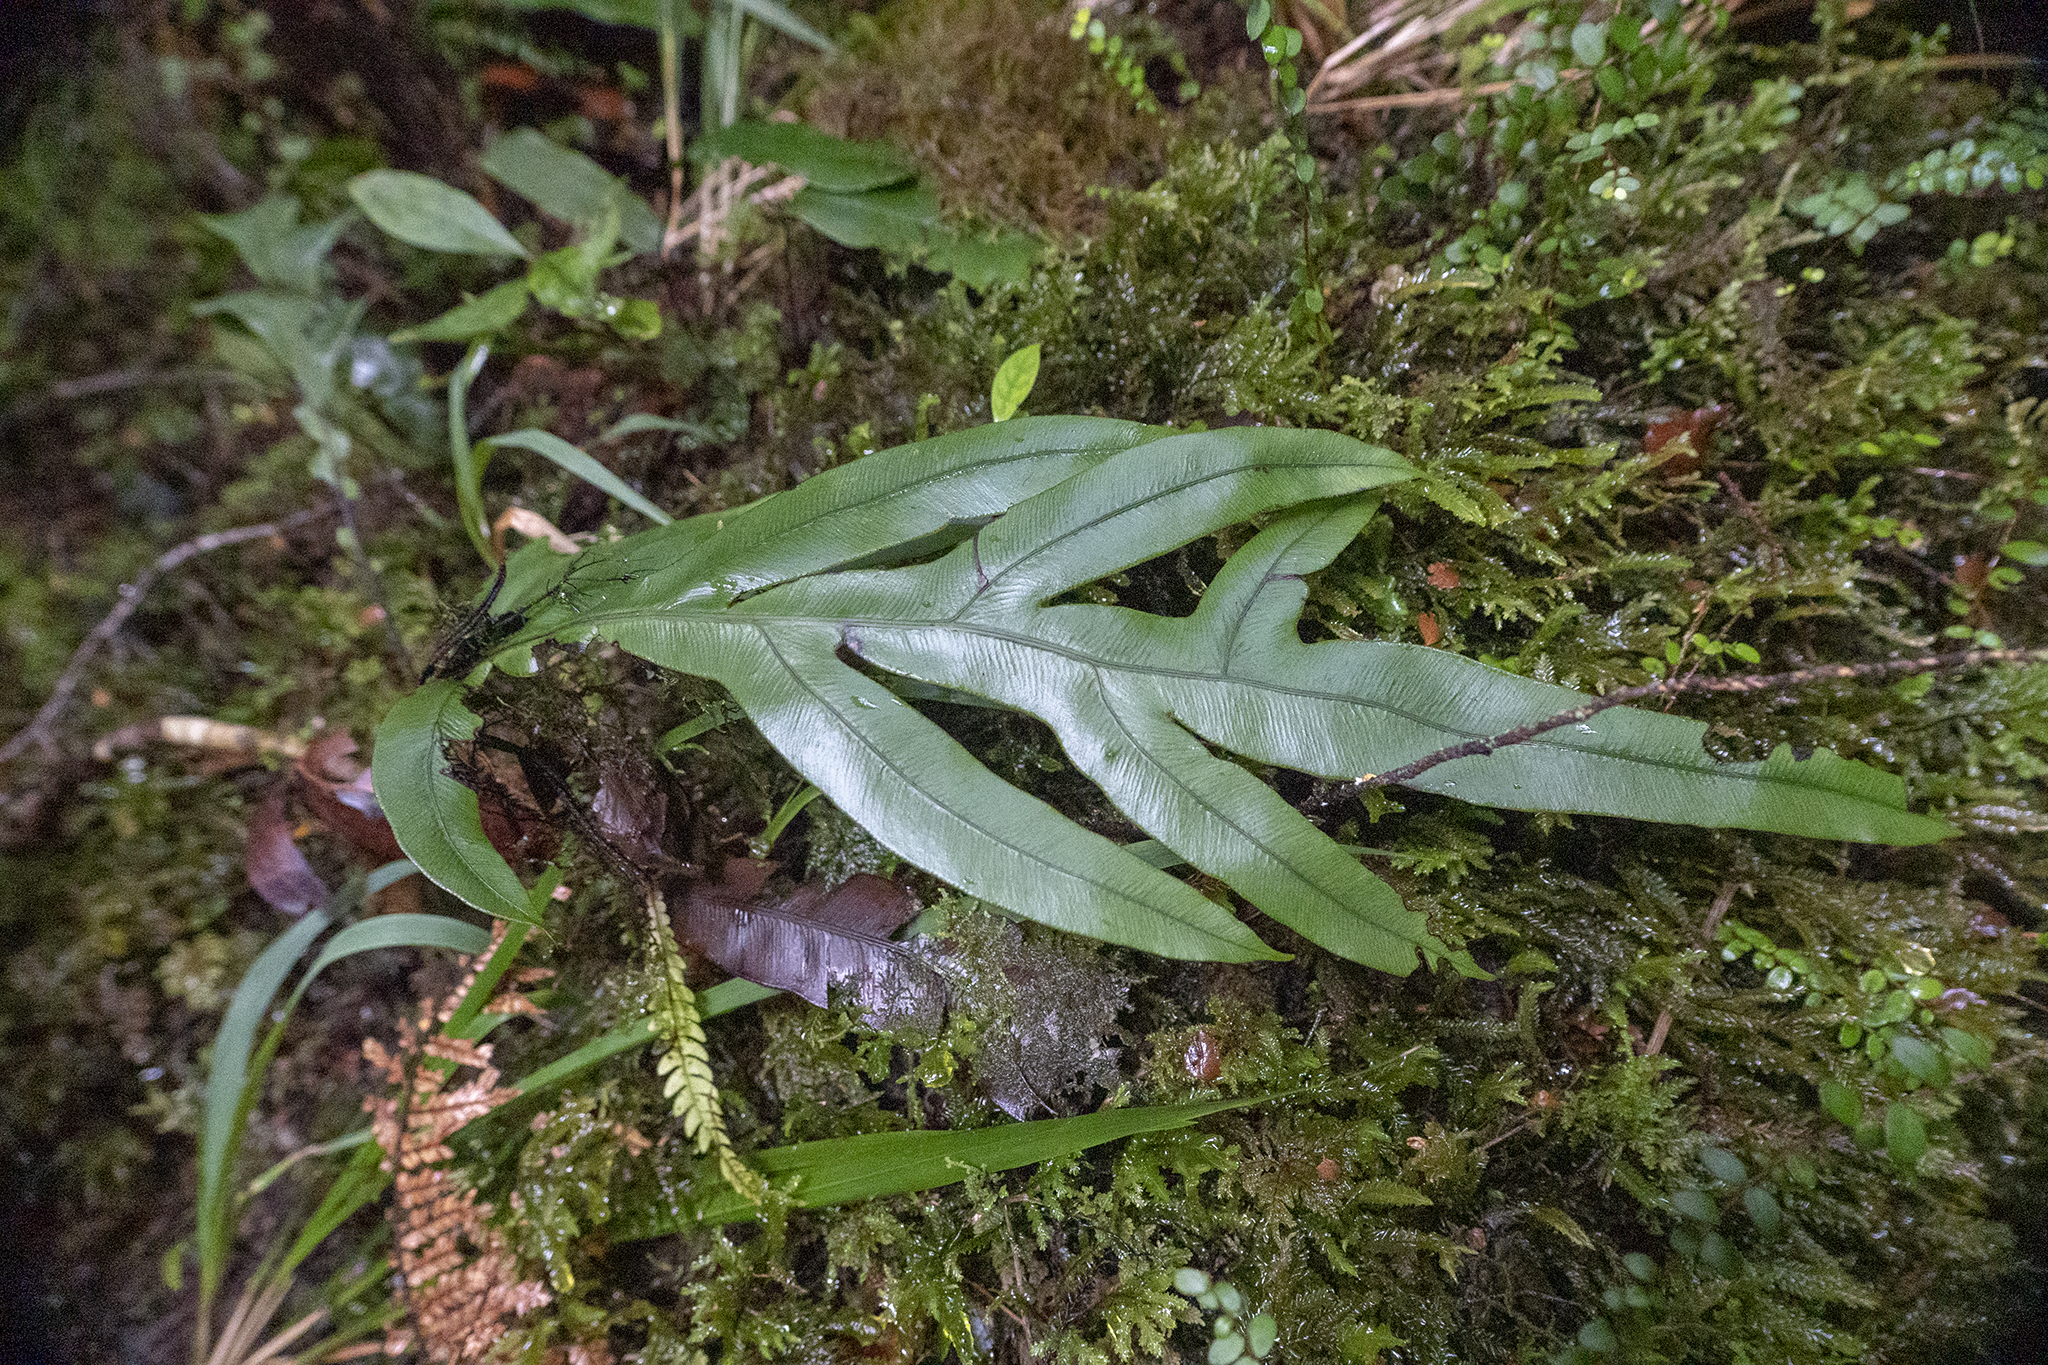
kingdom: Plantae
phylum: Tracheophyta
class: Polypodiopsida
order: Polypodiales
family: Blechnaceae
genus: Austroblechnum
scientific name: Austroblechnum colensoi
